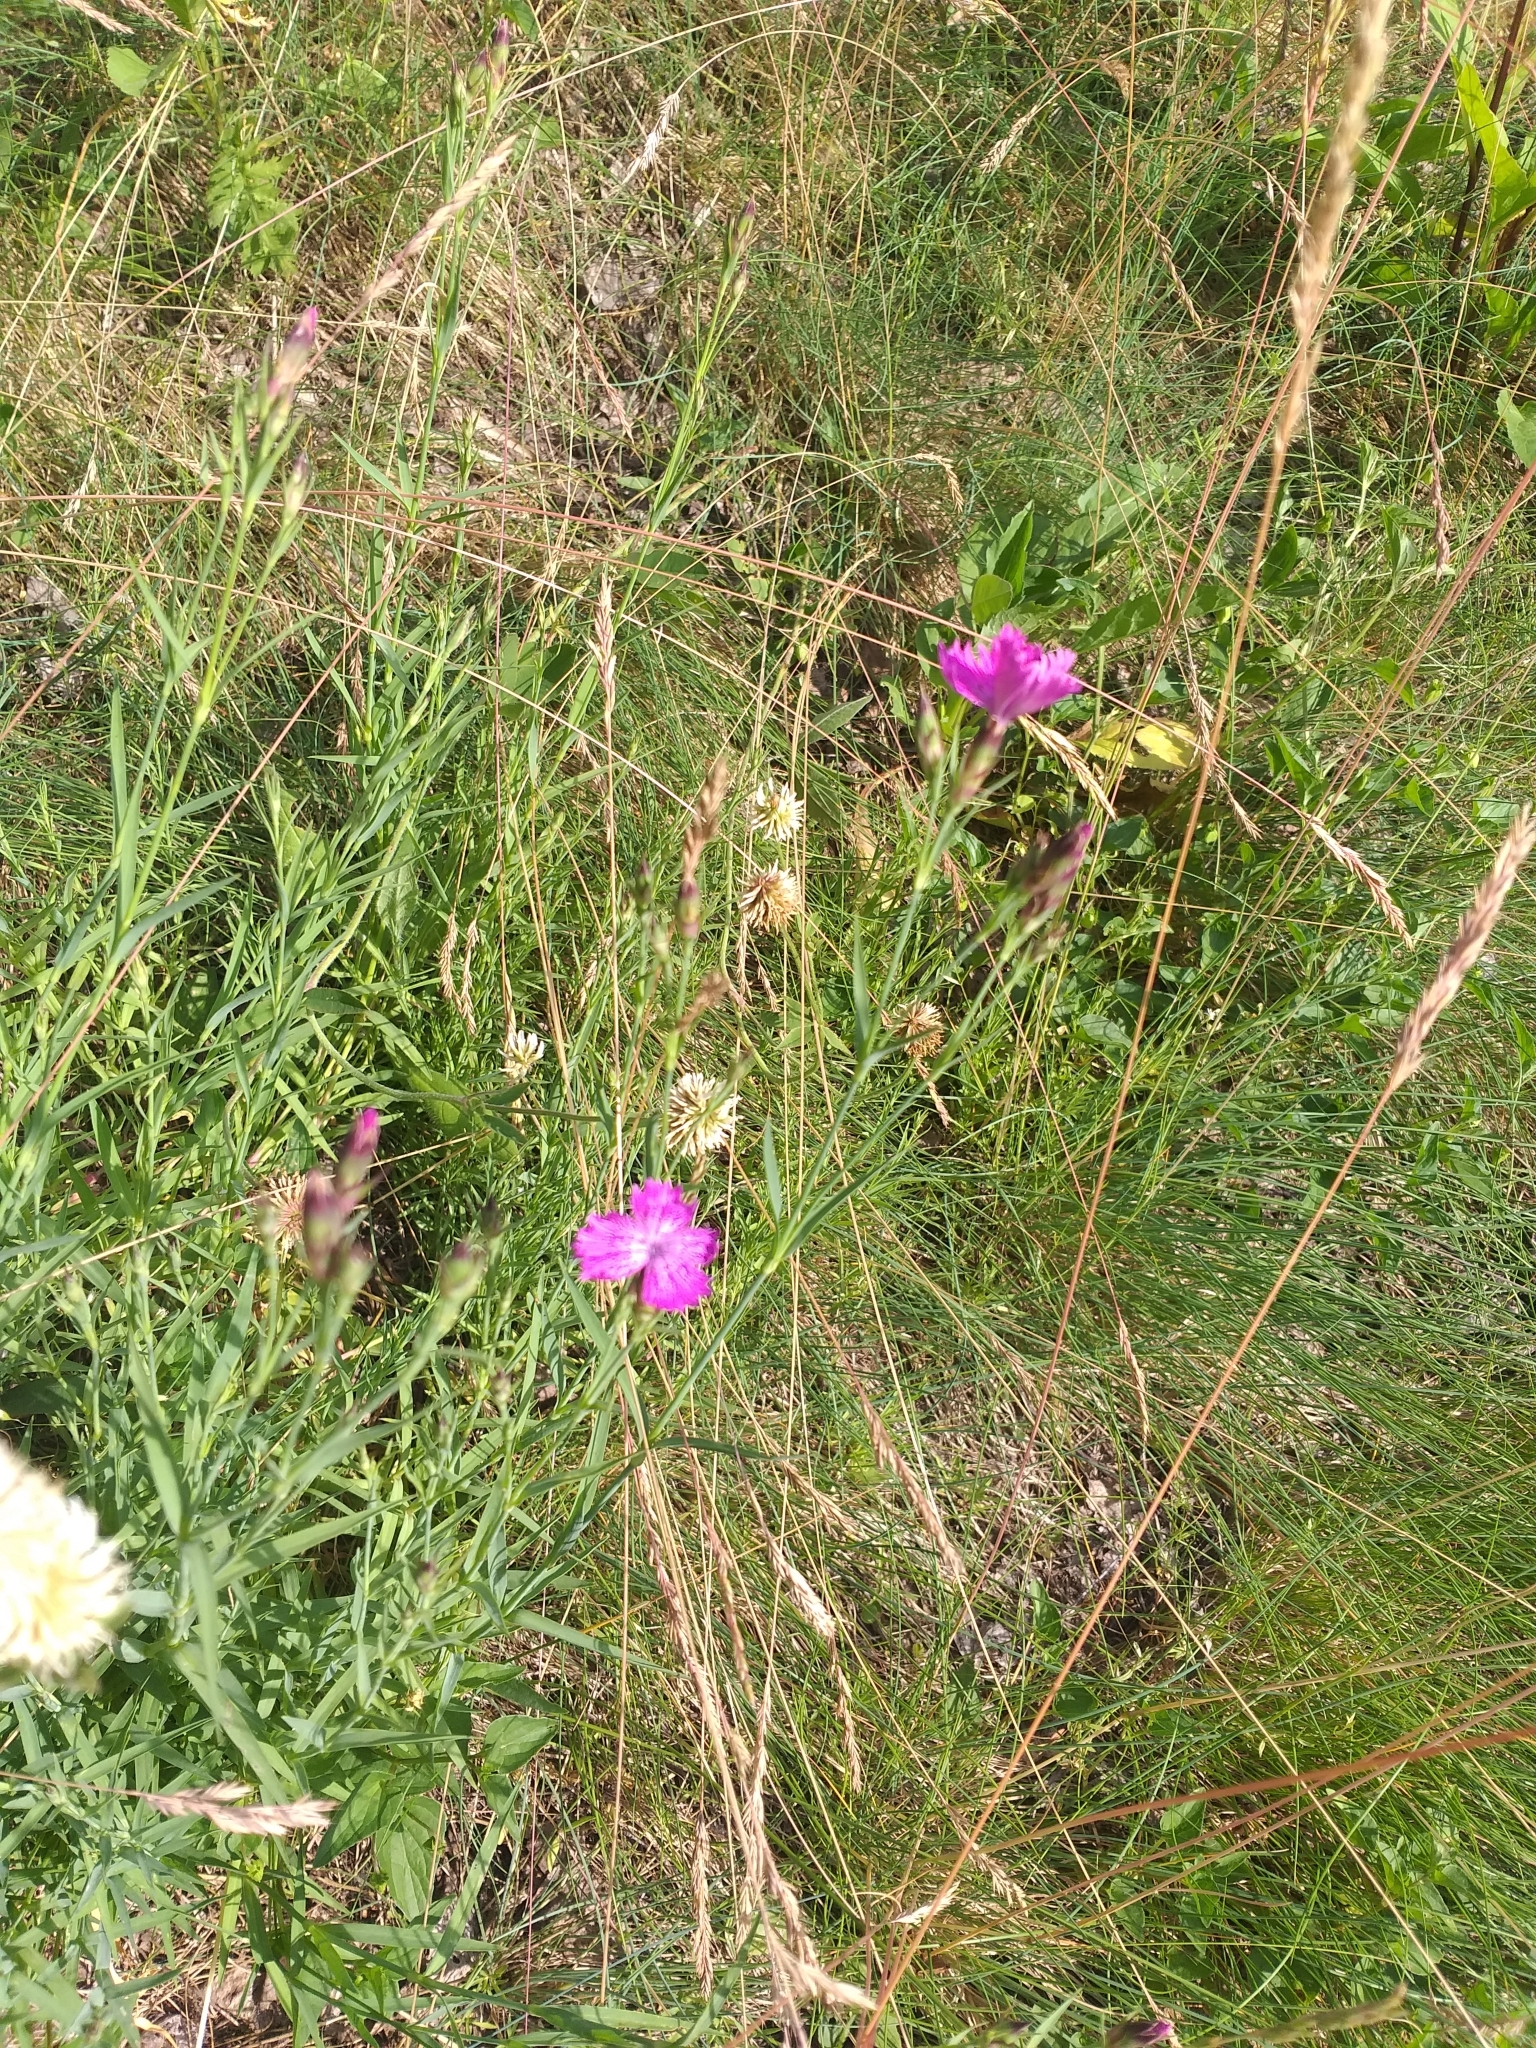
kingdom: Plantae
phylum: Tracheophyta
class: Magnoliopsida
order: Caryophyllales
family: Caryophyllaceae
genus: Dianthus
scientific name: Dianthus chinensis
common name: Rainbow pink
